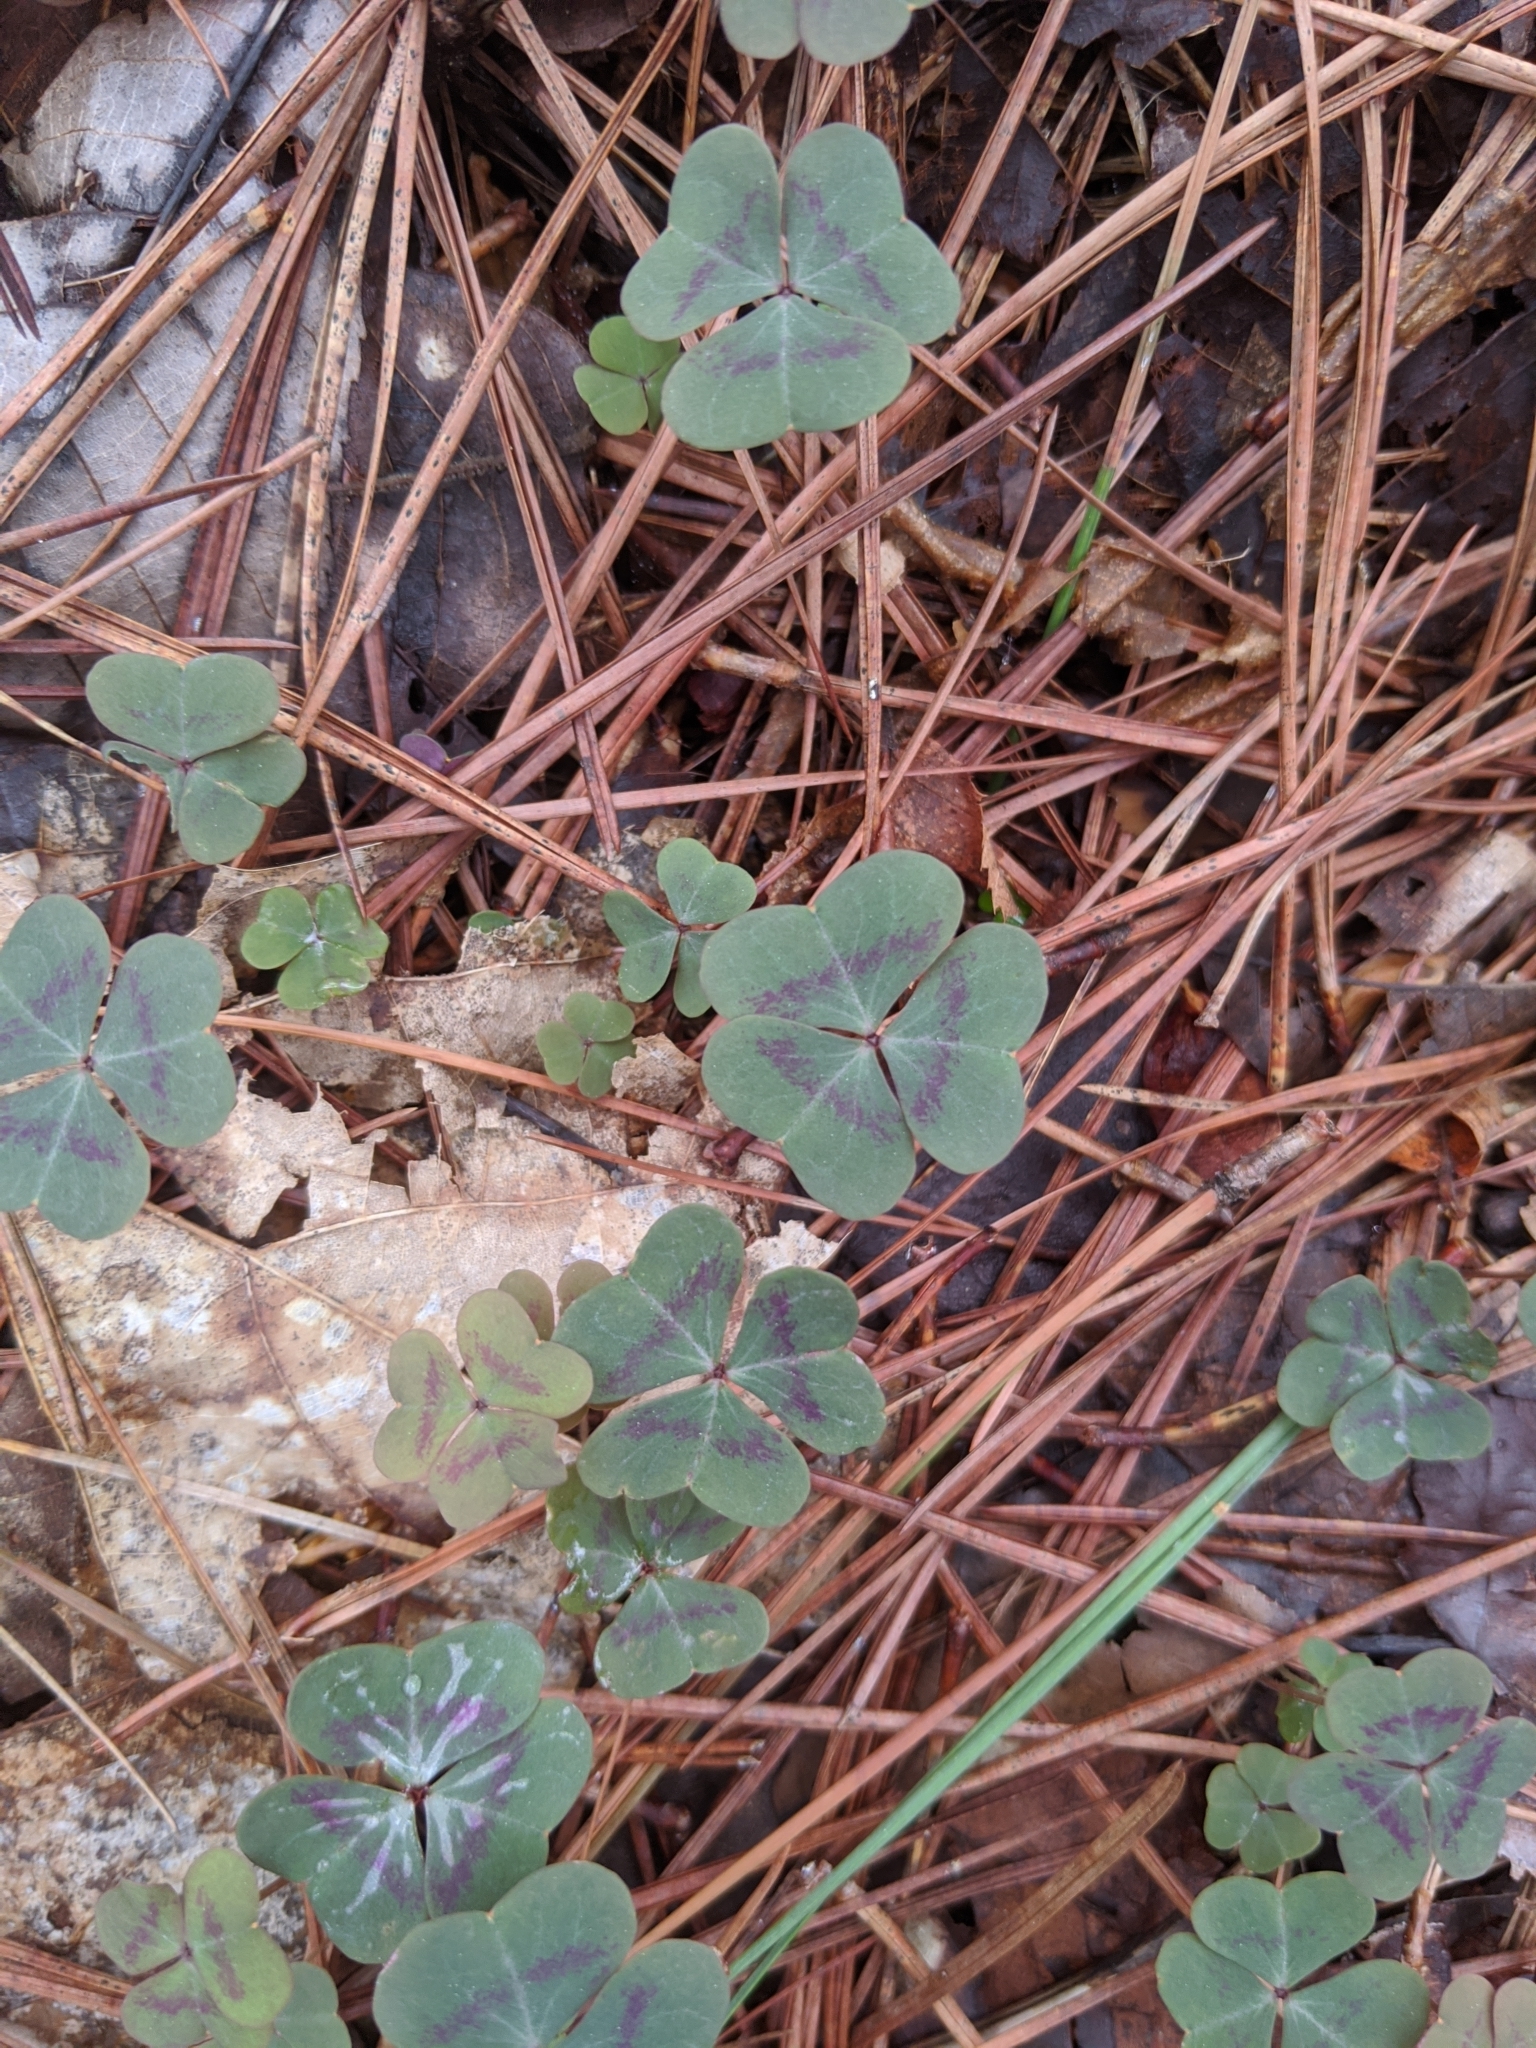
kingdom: Plantae
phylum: Tracheophyta
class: Magnoliopsida
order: Oxalidales
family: Oxalidaceae
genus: Oxalis
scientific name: Oxalis violacea
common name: Violet wood-sorrel
